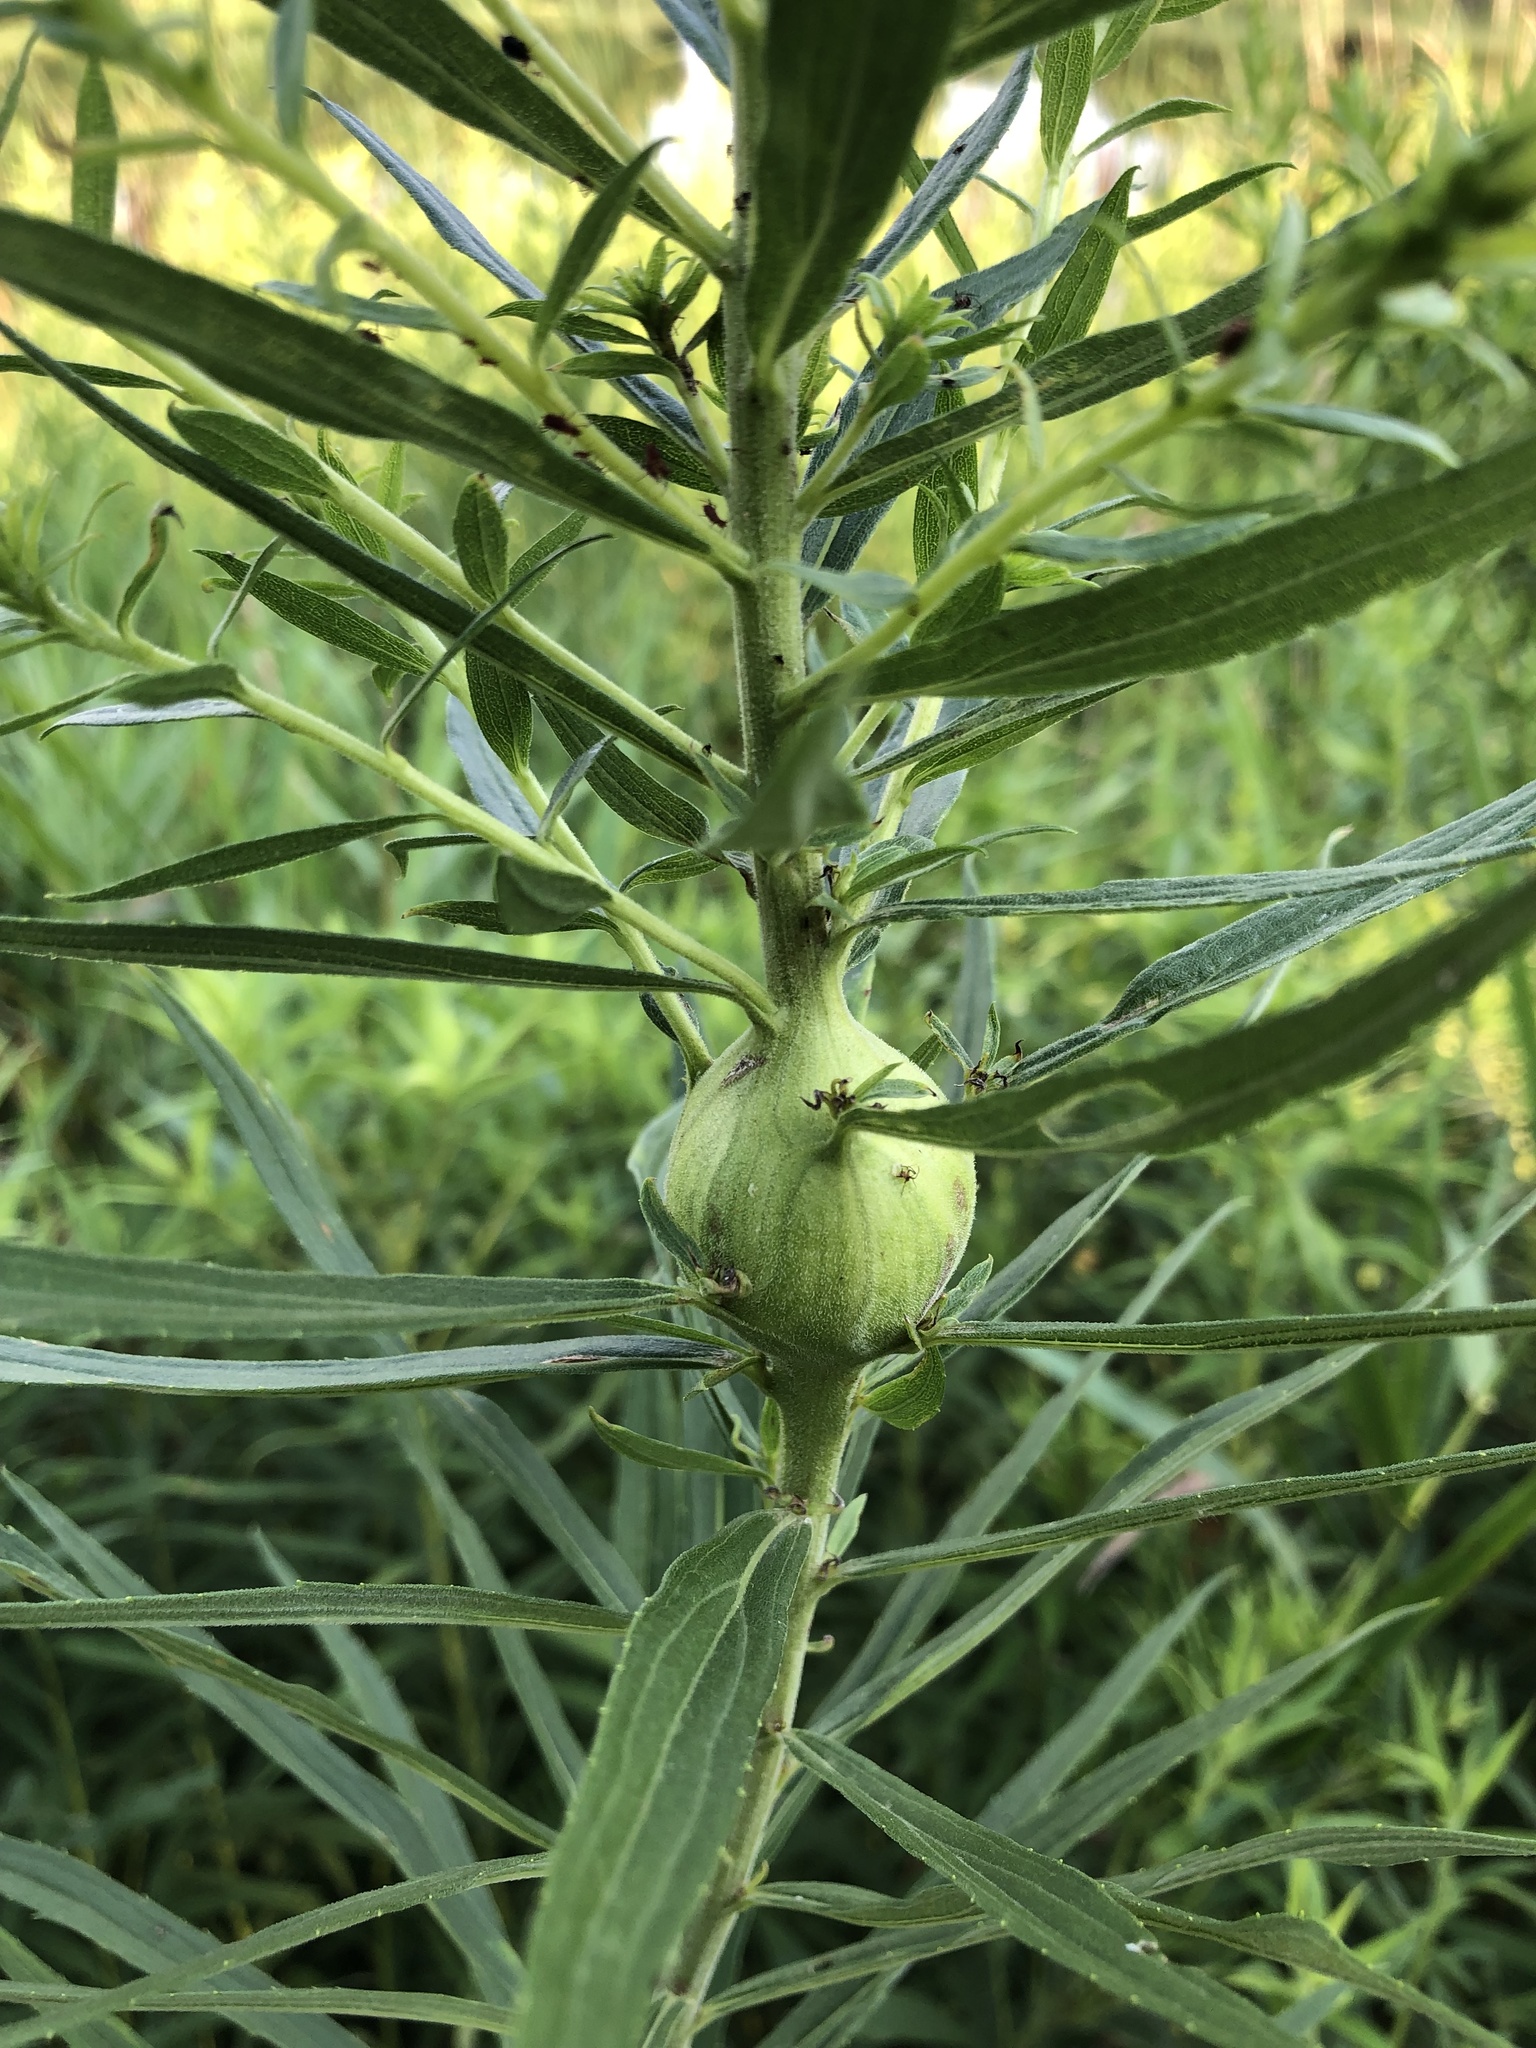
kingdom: Animalia
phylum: Arthropoda
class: Insecta
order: Diptera
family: Tephritidae
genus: Eurosta
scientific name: Eurosta solidaginis
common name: Goldenrod gall fly
